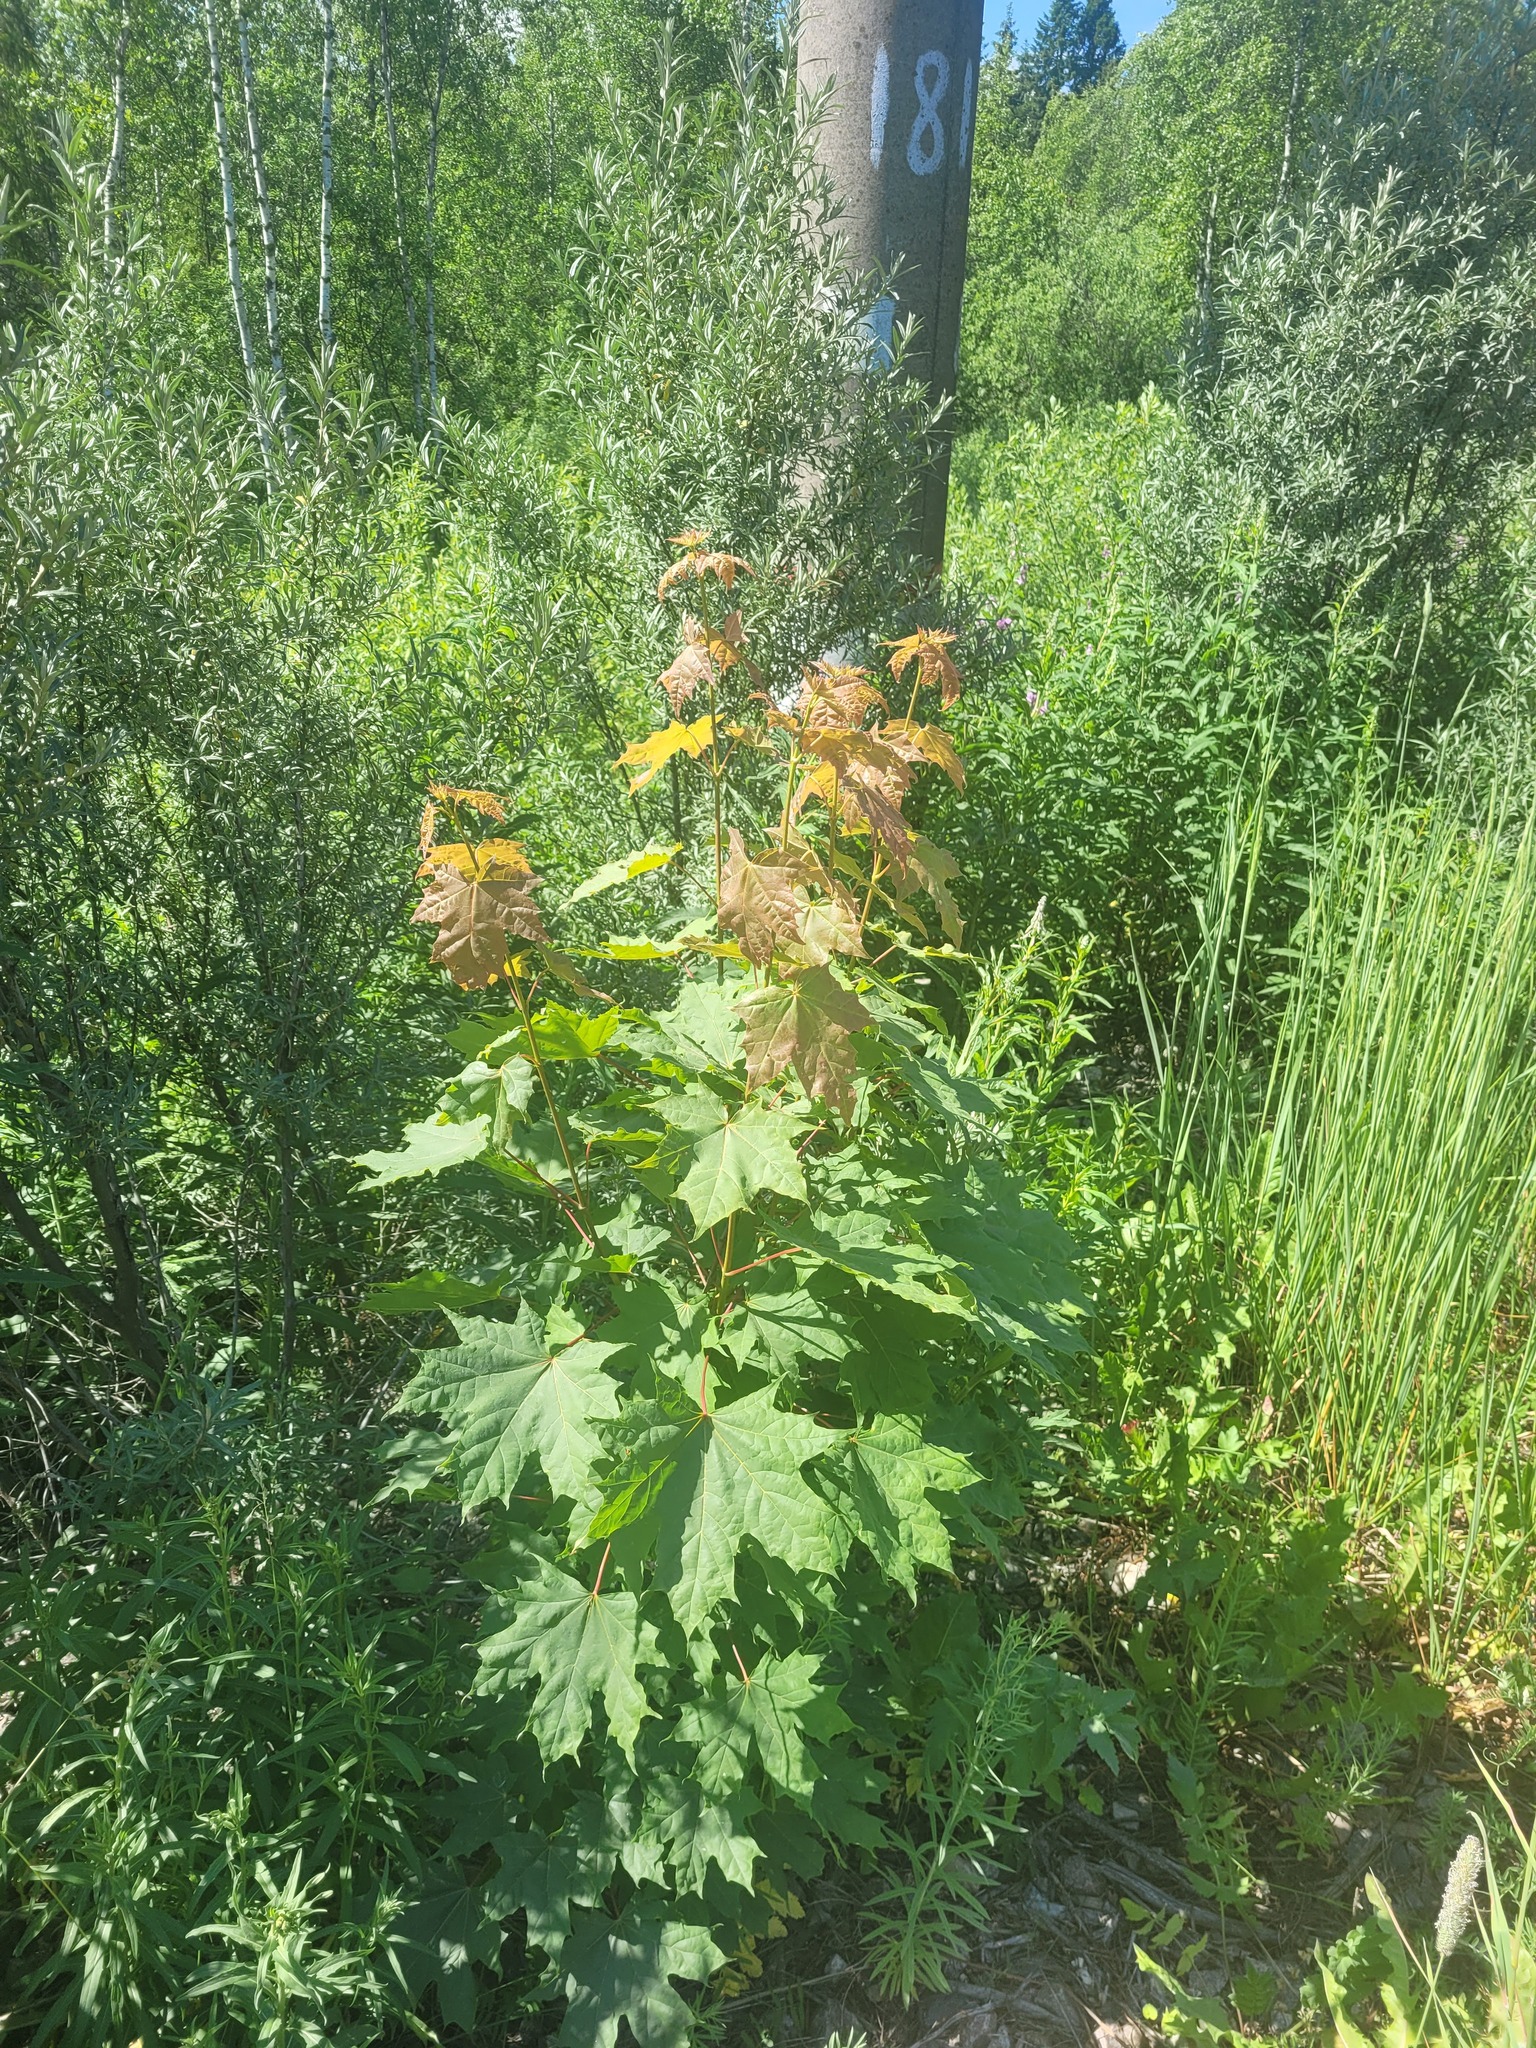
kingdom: Plantae
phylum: Tracheophyta
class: Magnoliopsida
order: Sapindales
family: Sapindaceae
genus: Acer
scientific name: Acer platanoides
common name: Norway maple
